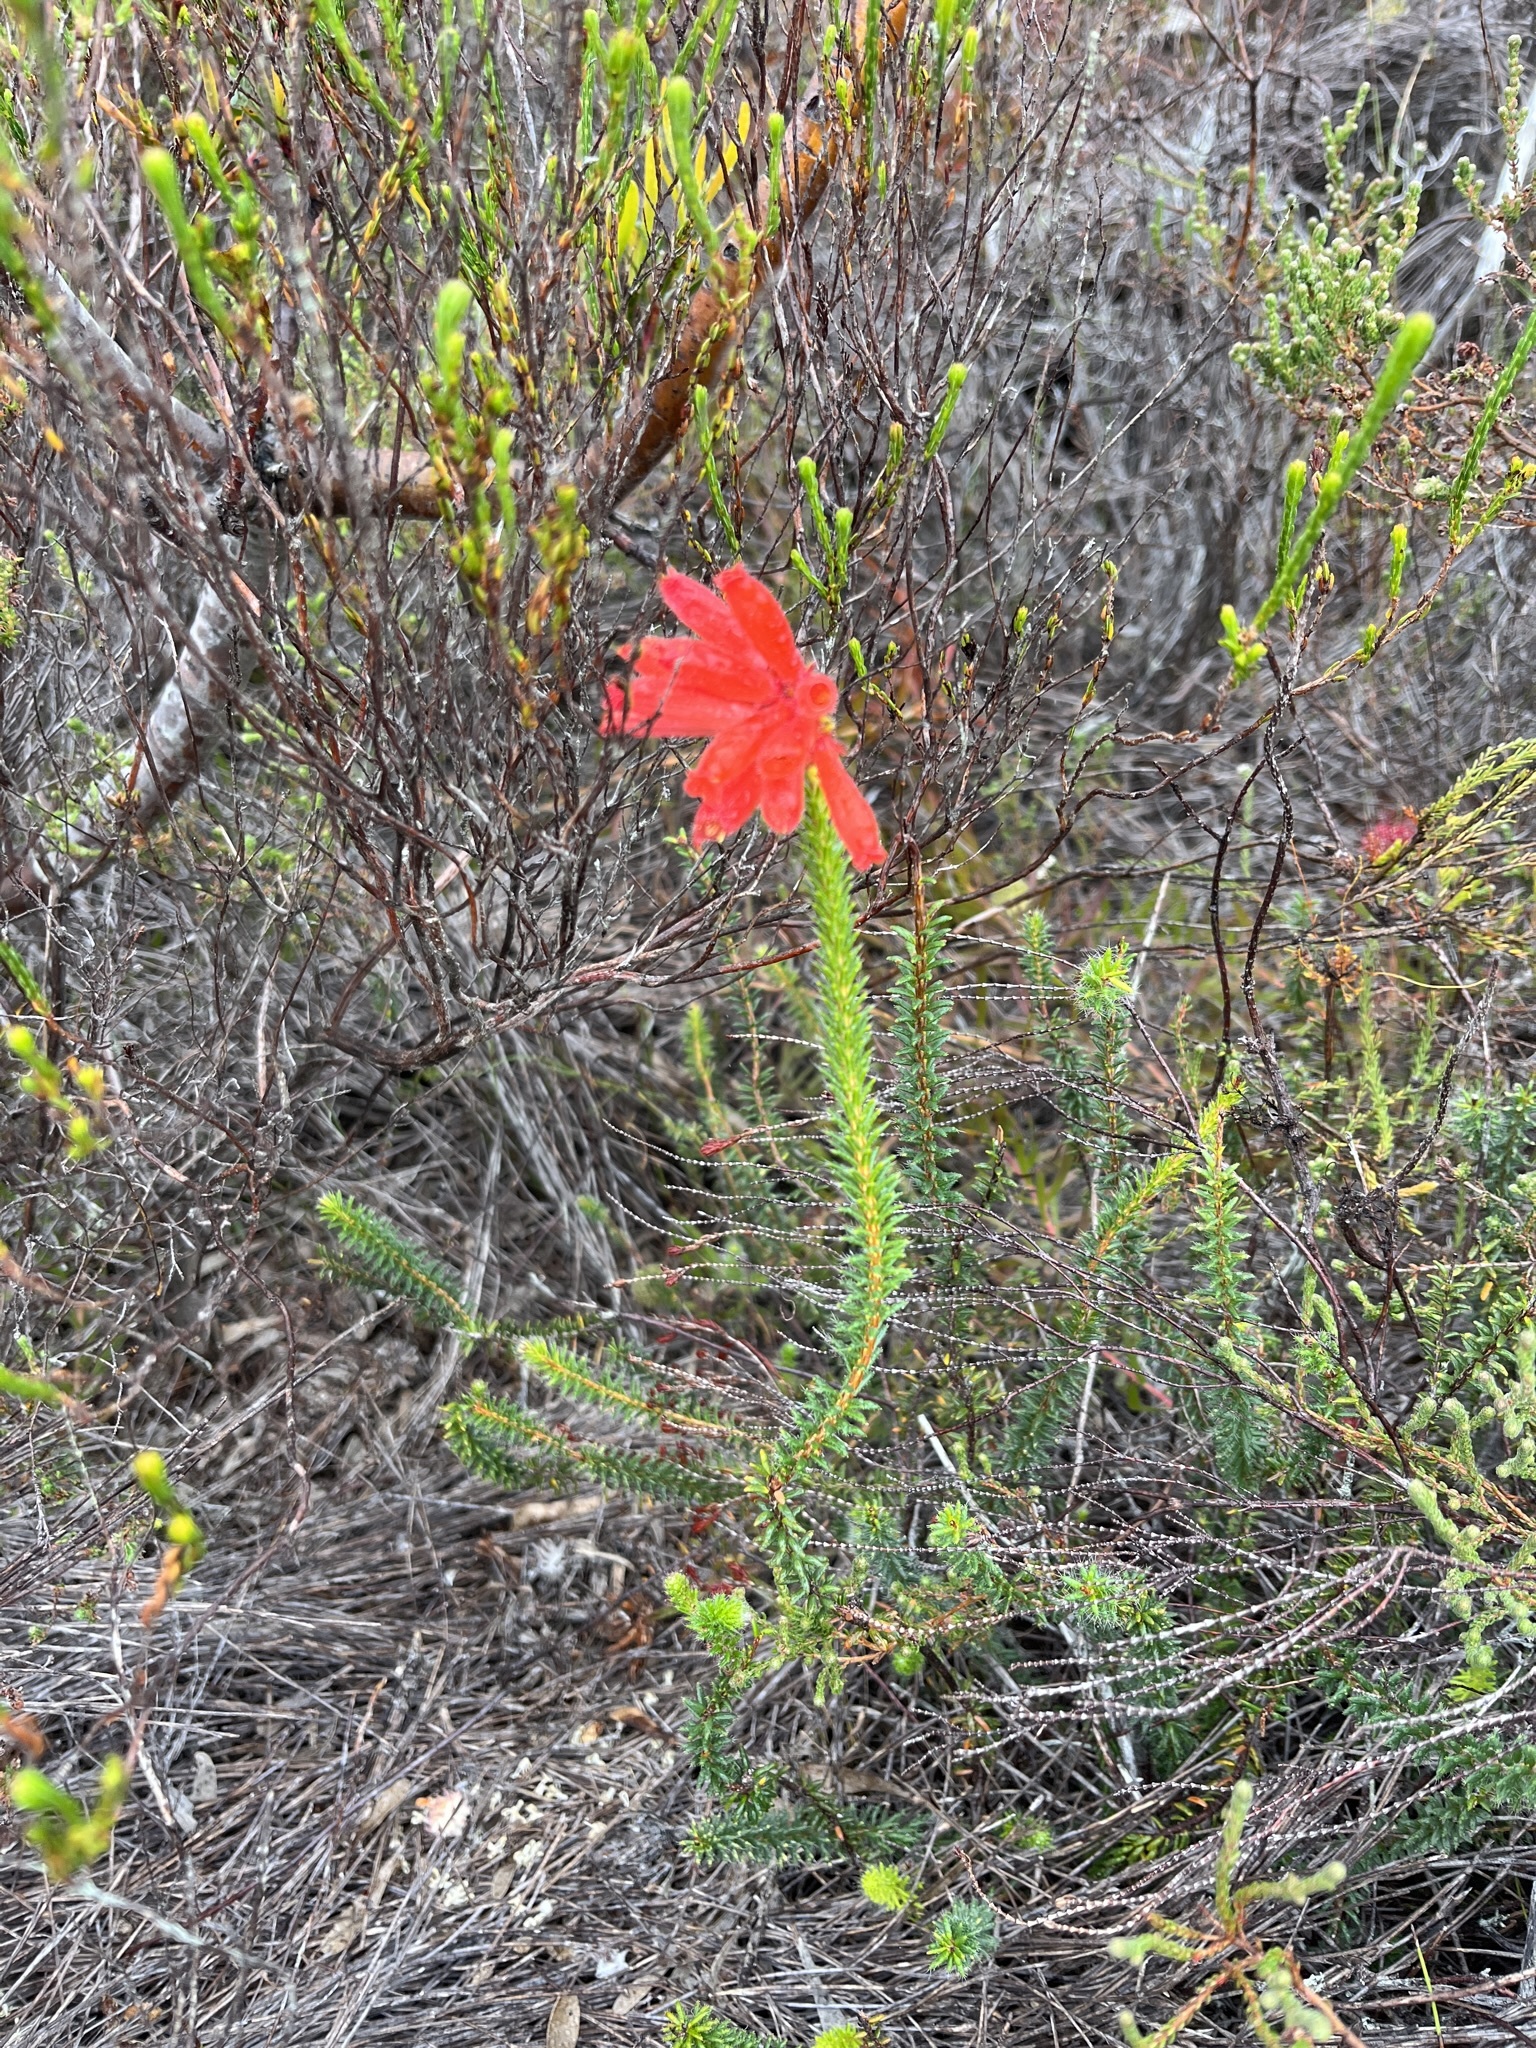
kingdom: Plantae
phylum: Tracheophyta
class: Magnoliopsida
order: Ericales
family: Ericaceae
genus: Erica
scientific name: Erica cerinthoides
